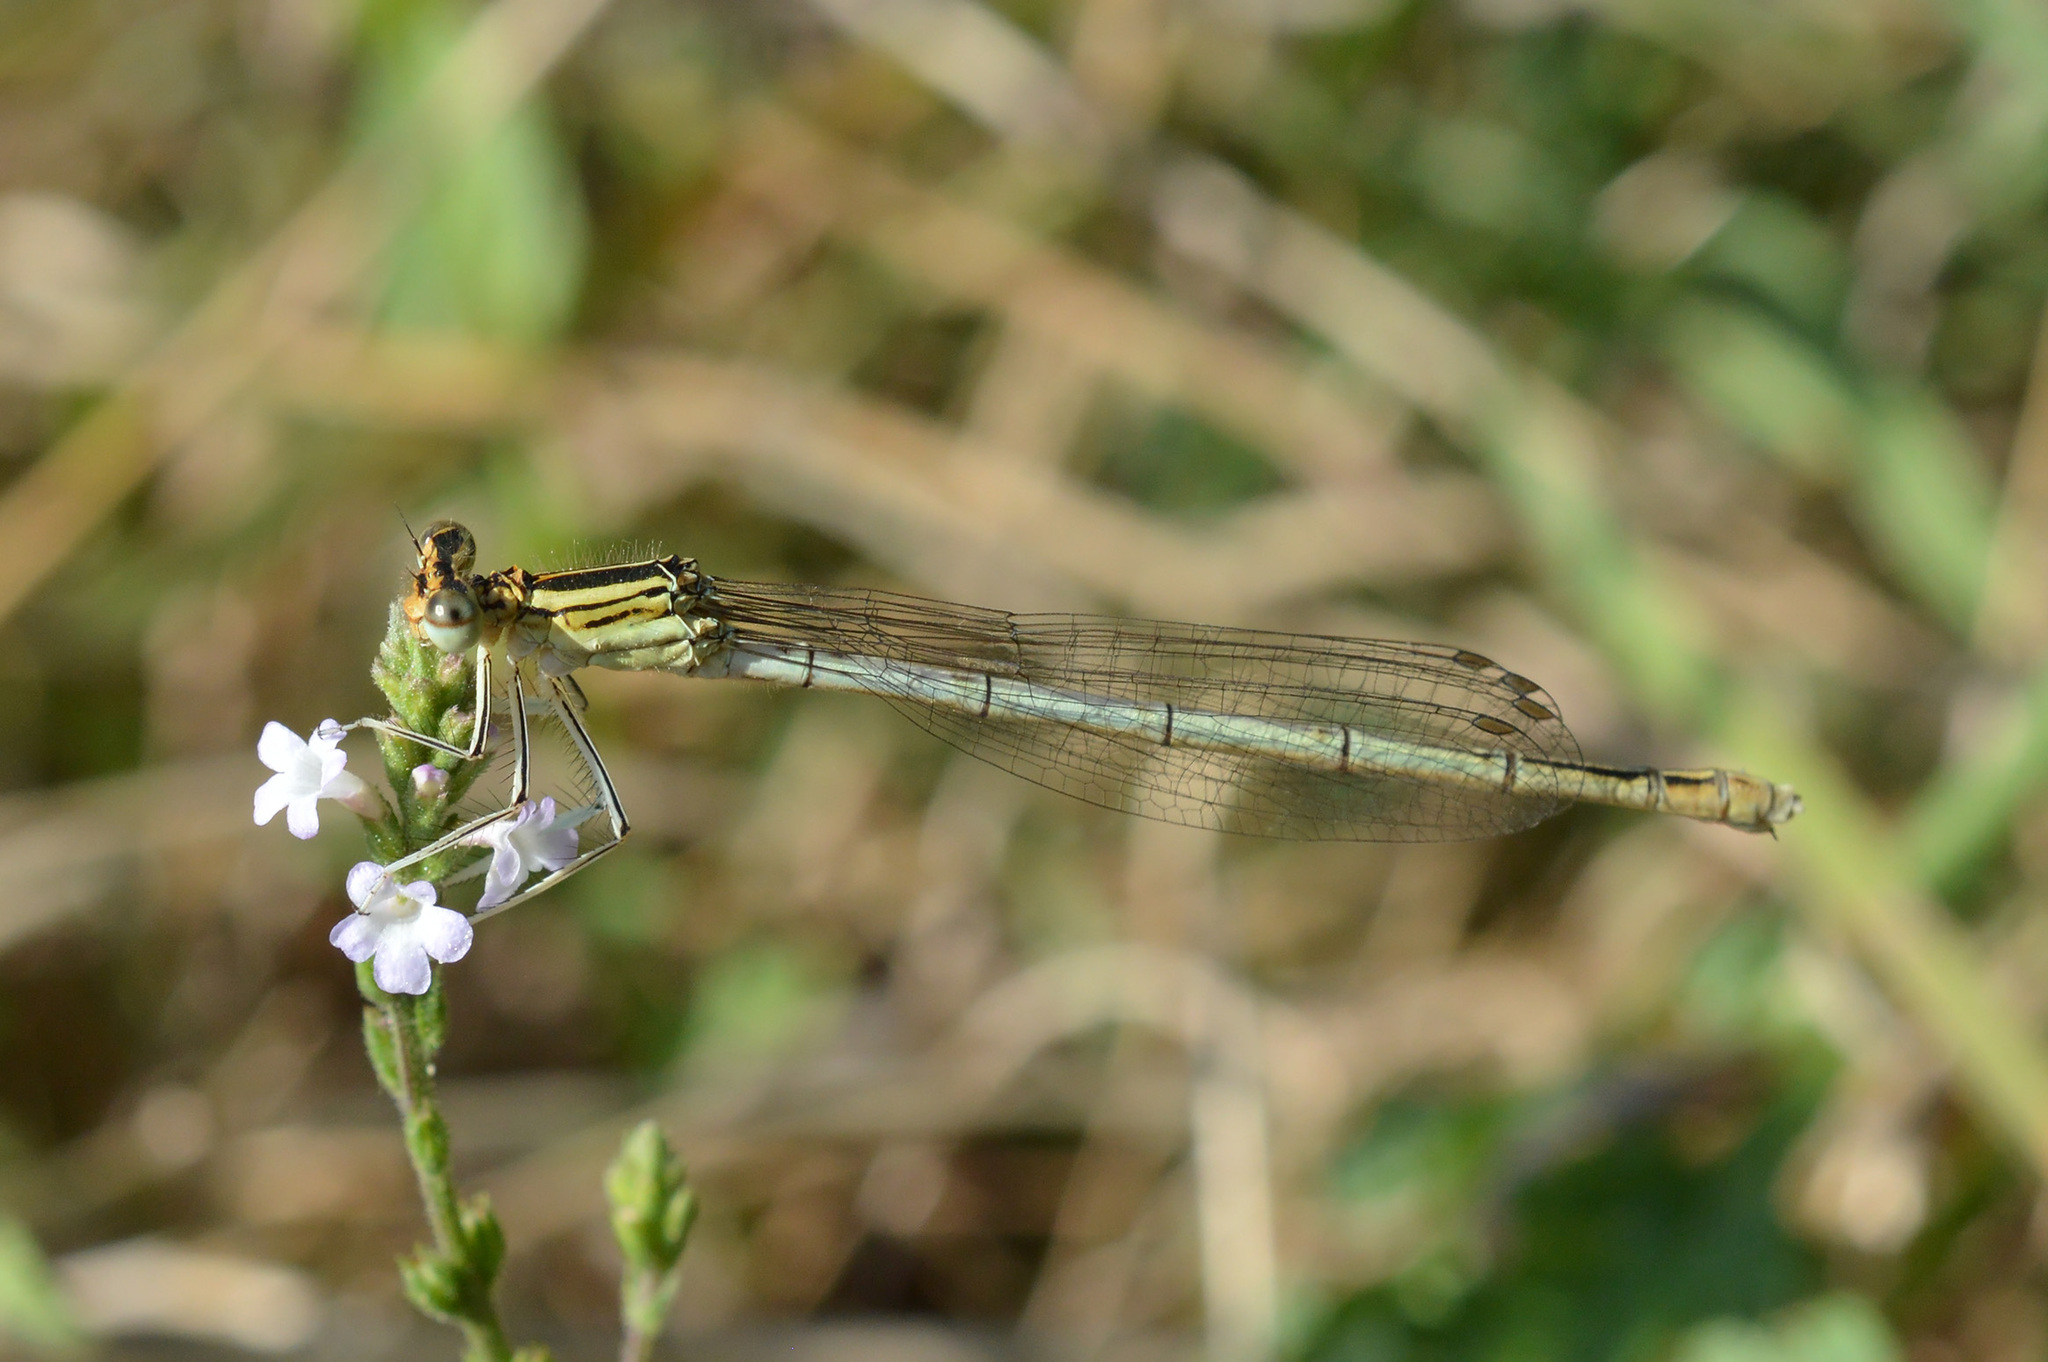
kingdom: Animalia
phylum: Arthropoda
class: Insecta
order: Odonata
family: Platycnemididae
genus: Platycnemis
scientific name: Platycnemis pennipes
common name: White-legged damselfly
